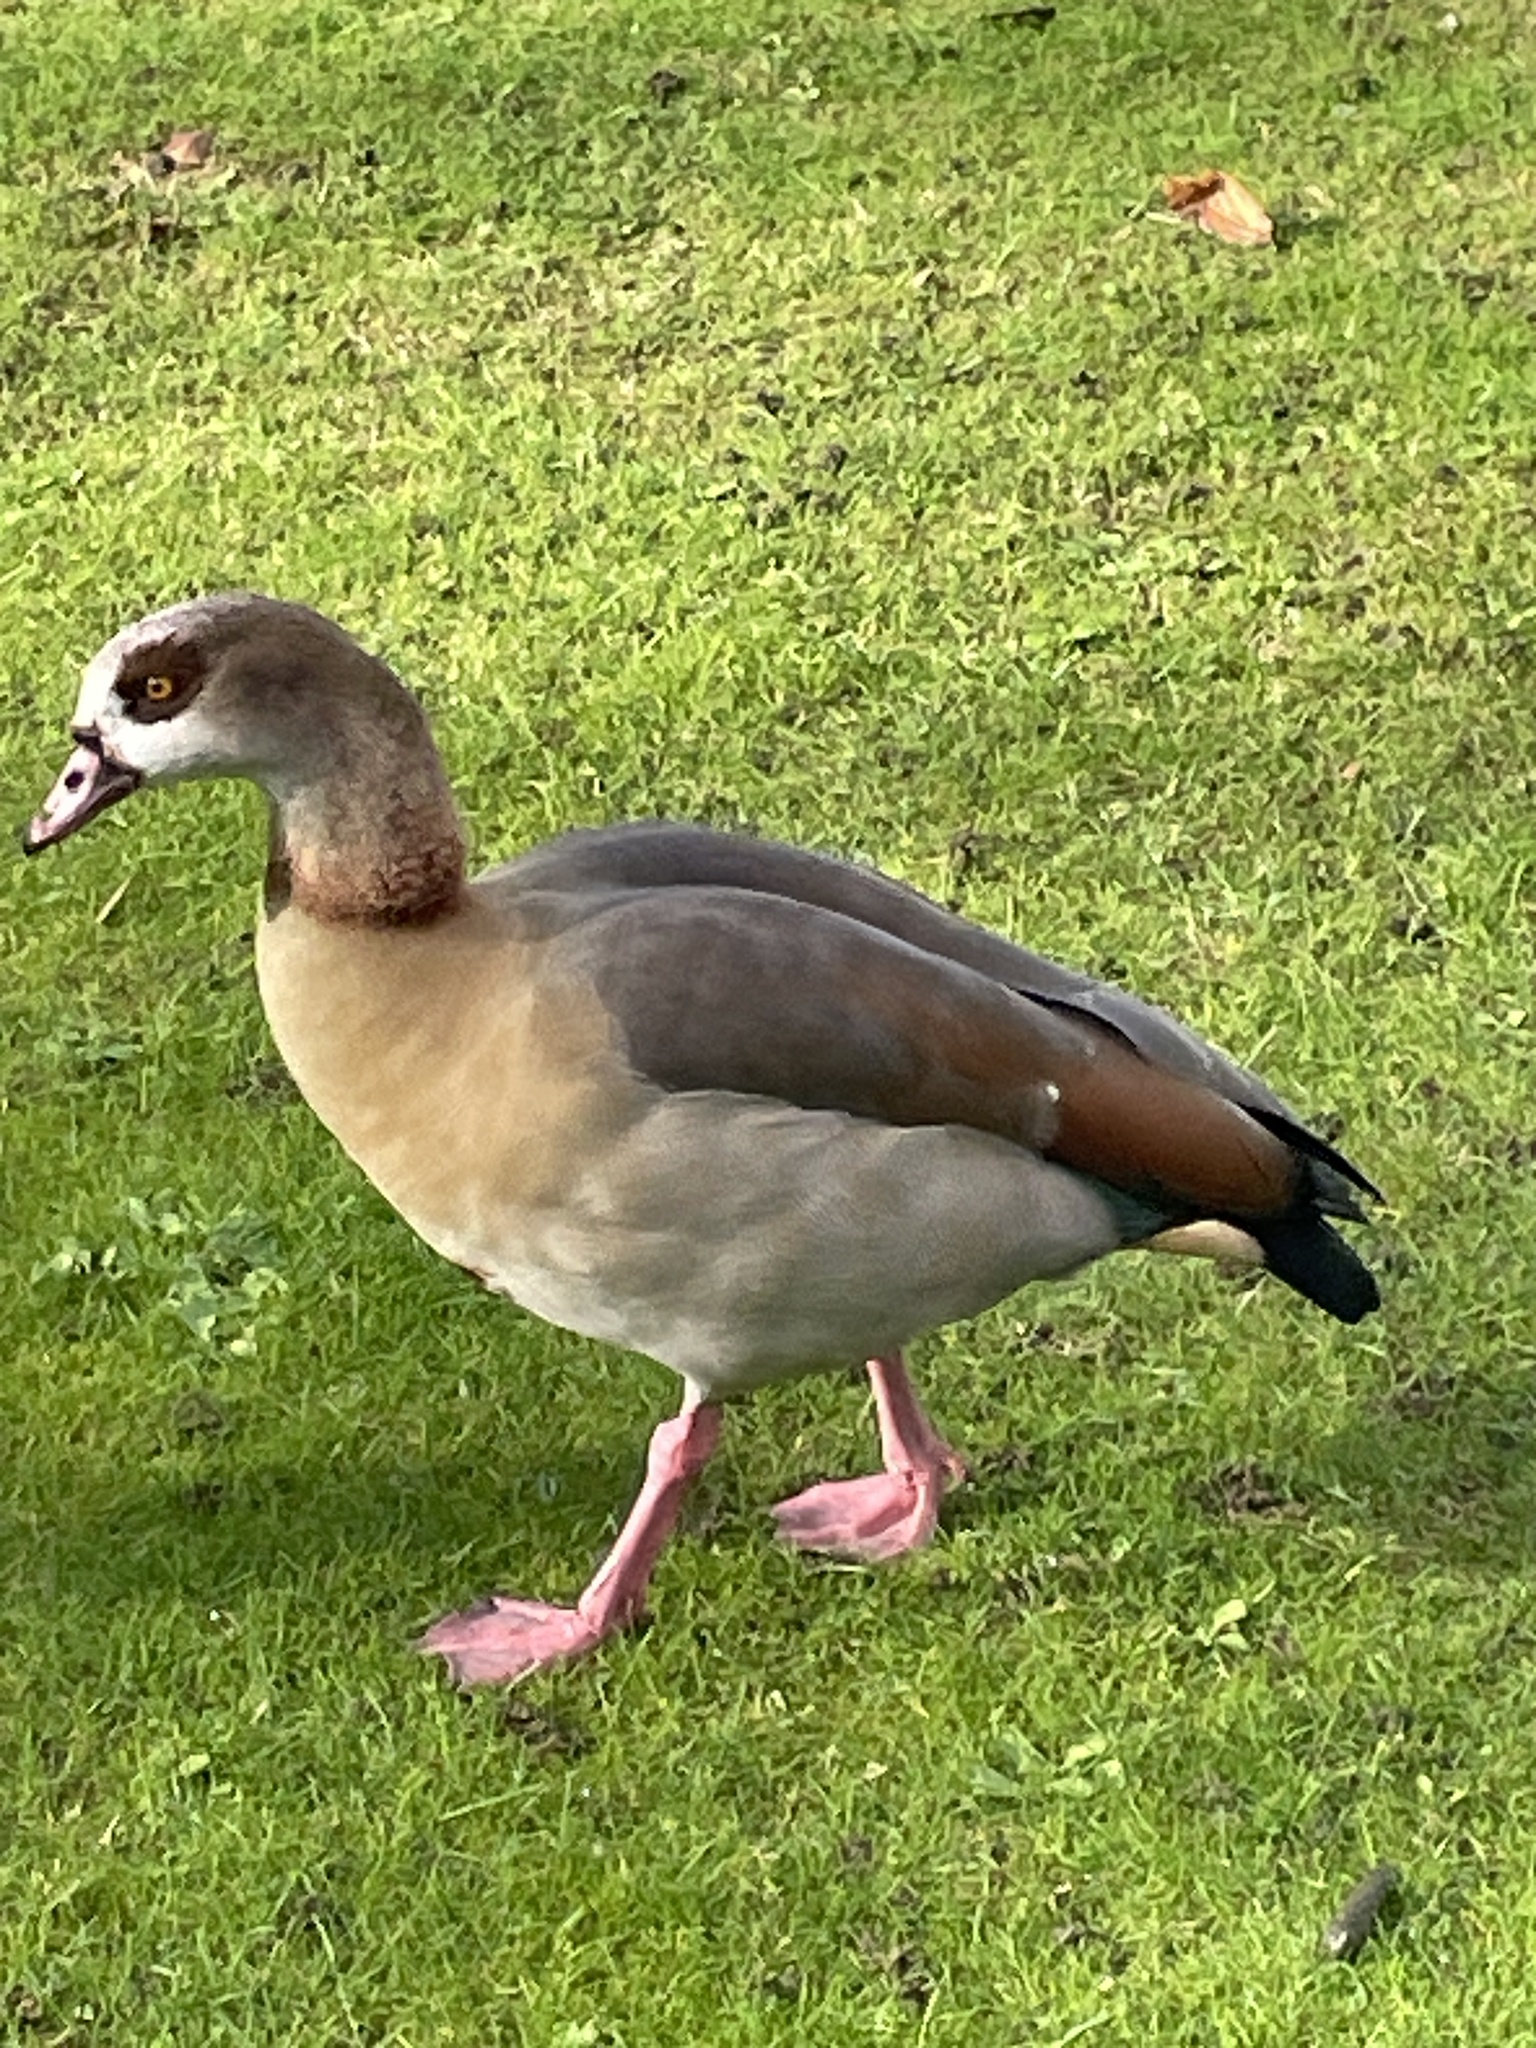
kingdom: Animalia
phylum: Chordata
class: Aves
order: Anseriformes
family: Anatidae
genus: Alopochen
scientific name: Alopochen aegyptiaca
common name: Egyptian goose
